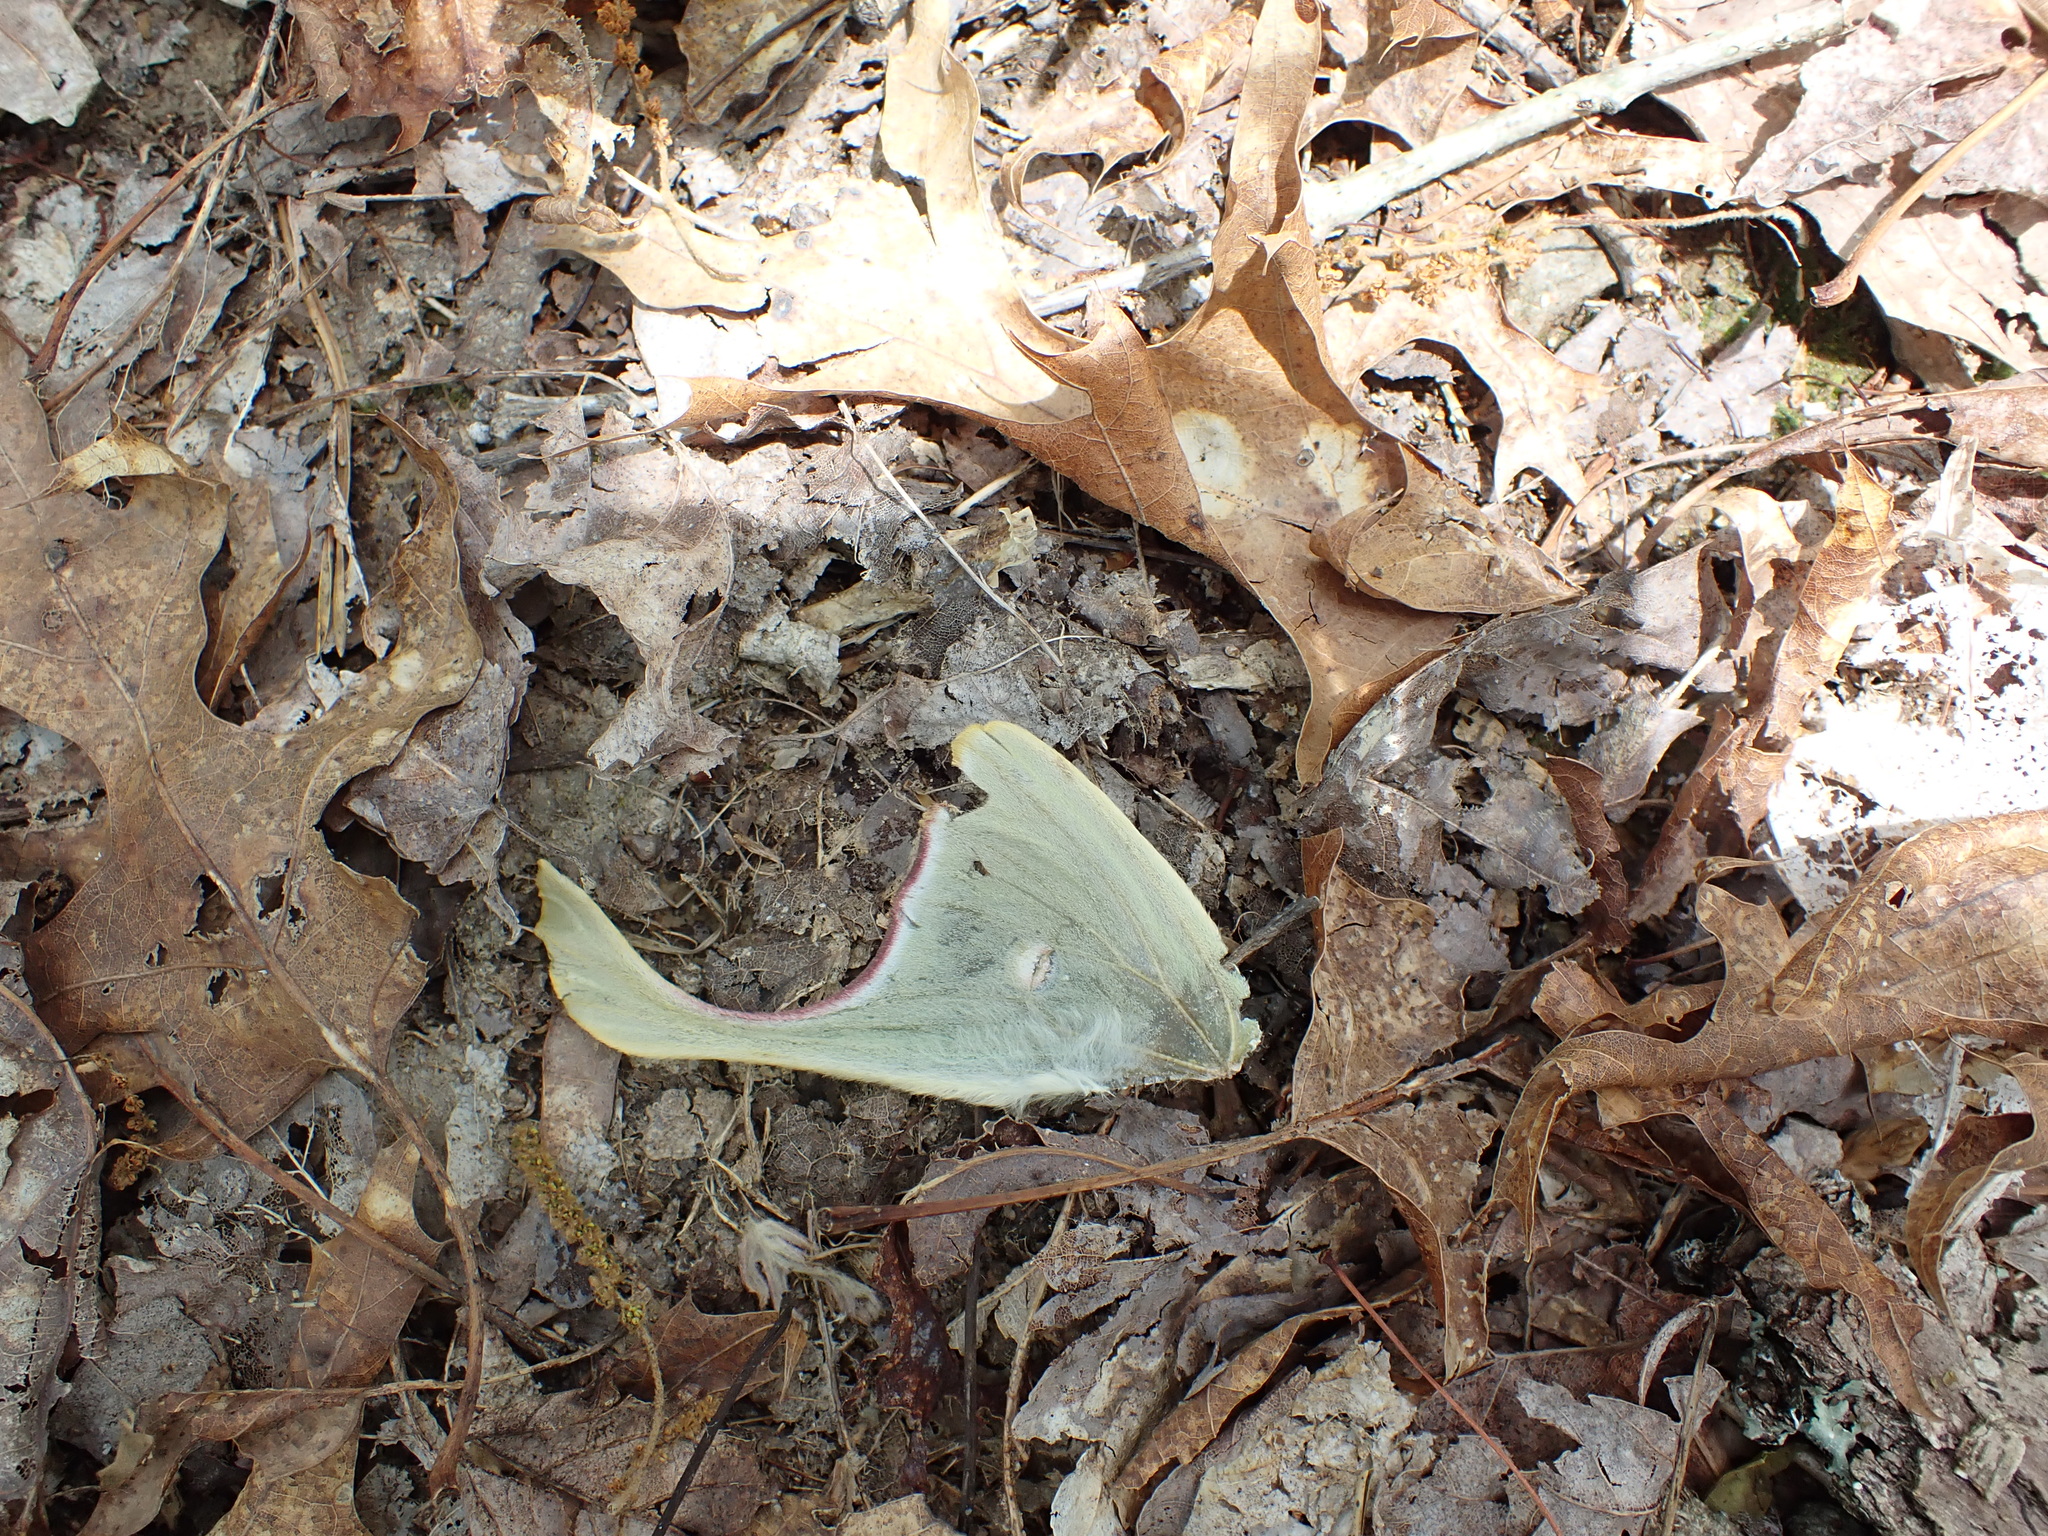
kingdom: Animalia
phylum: Arthropoda
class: Insecta
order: Lepidoptera
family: Saturniidae
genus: Actias
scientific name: Actias luna
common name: Luna moth
